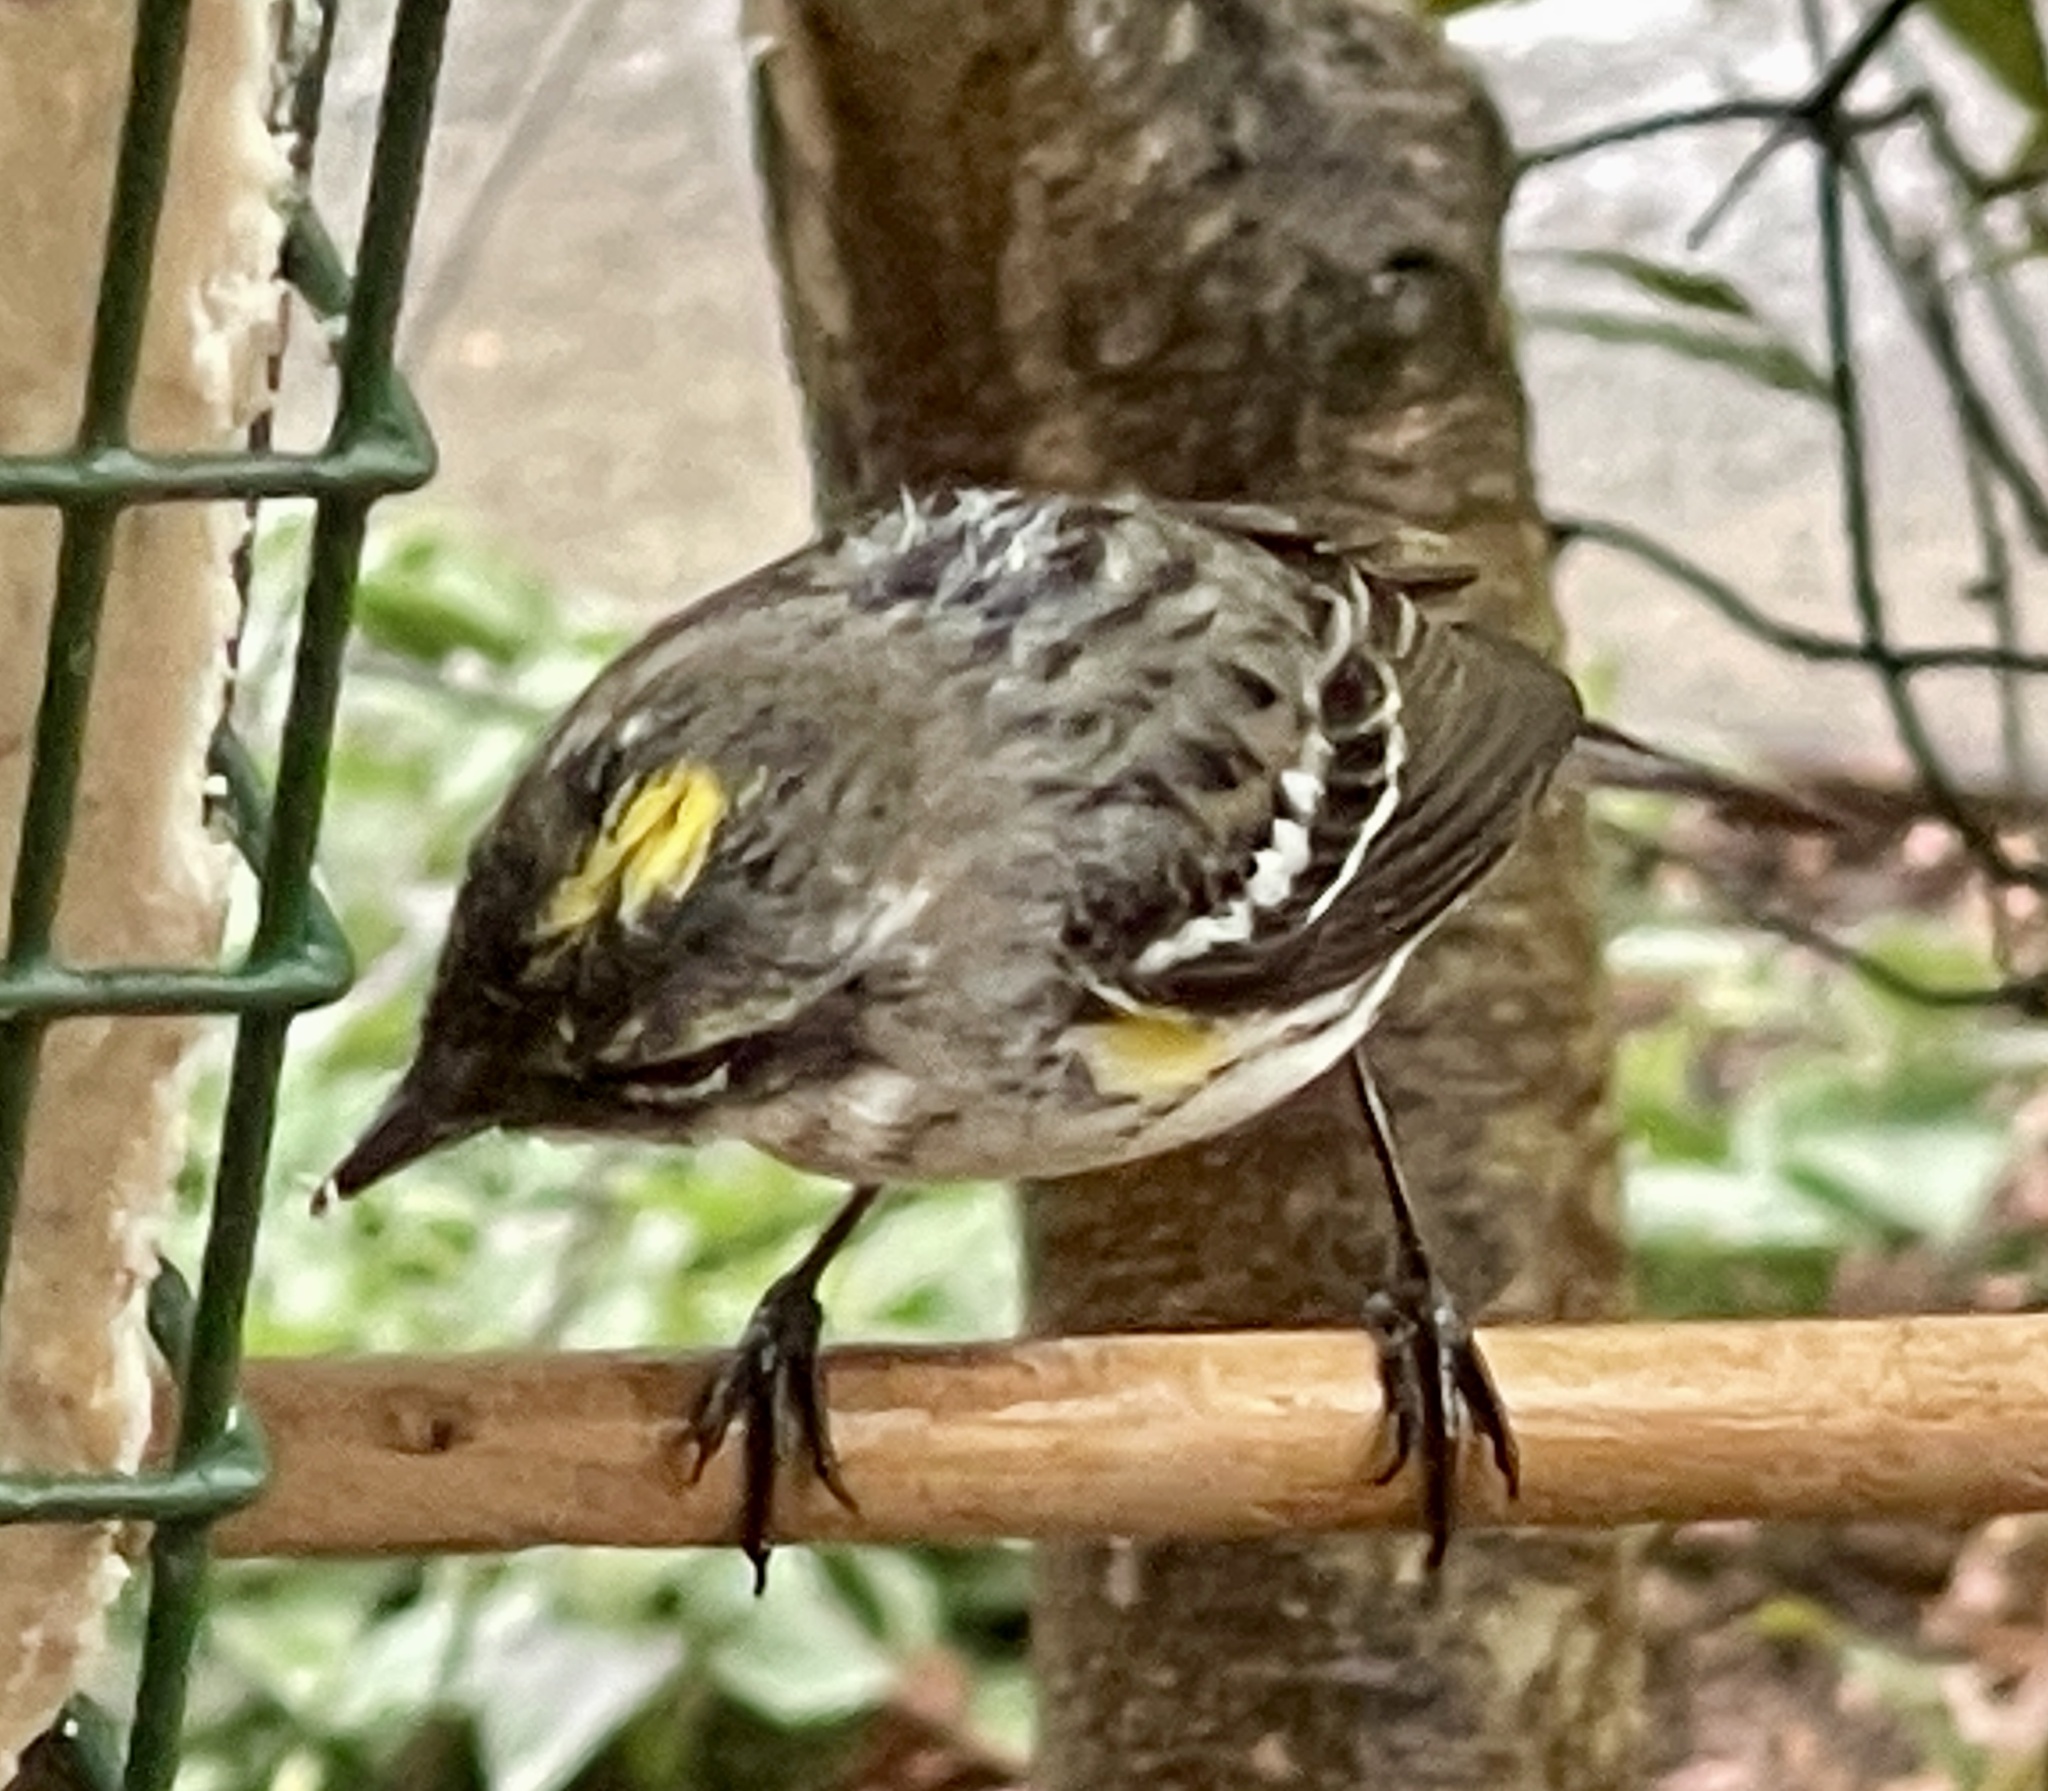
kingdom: Animalia
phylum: Chordata
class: Aves
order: Passeriformes
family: Parulidae
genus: Setophaga
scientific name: Setophaga coronata
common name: Myrtle warbler
